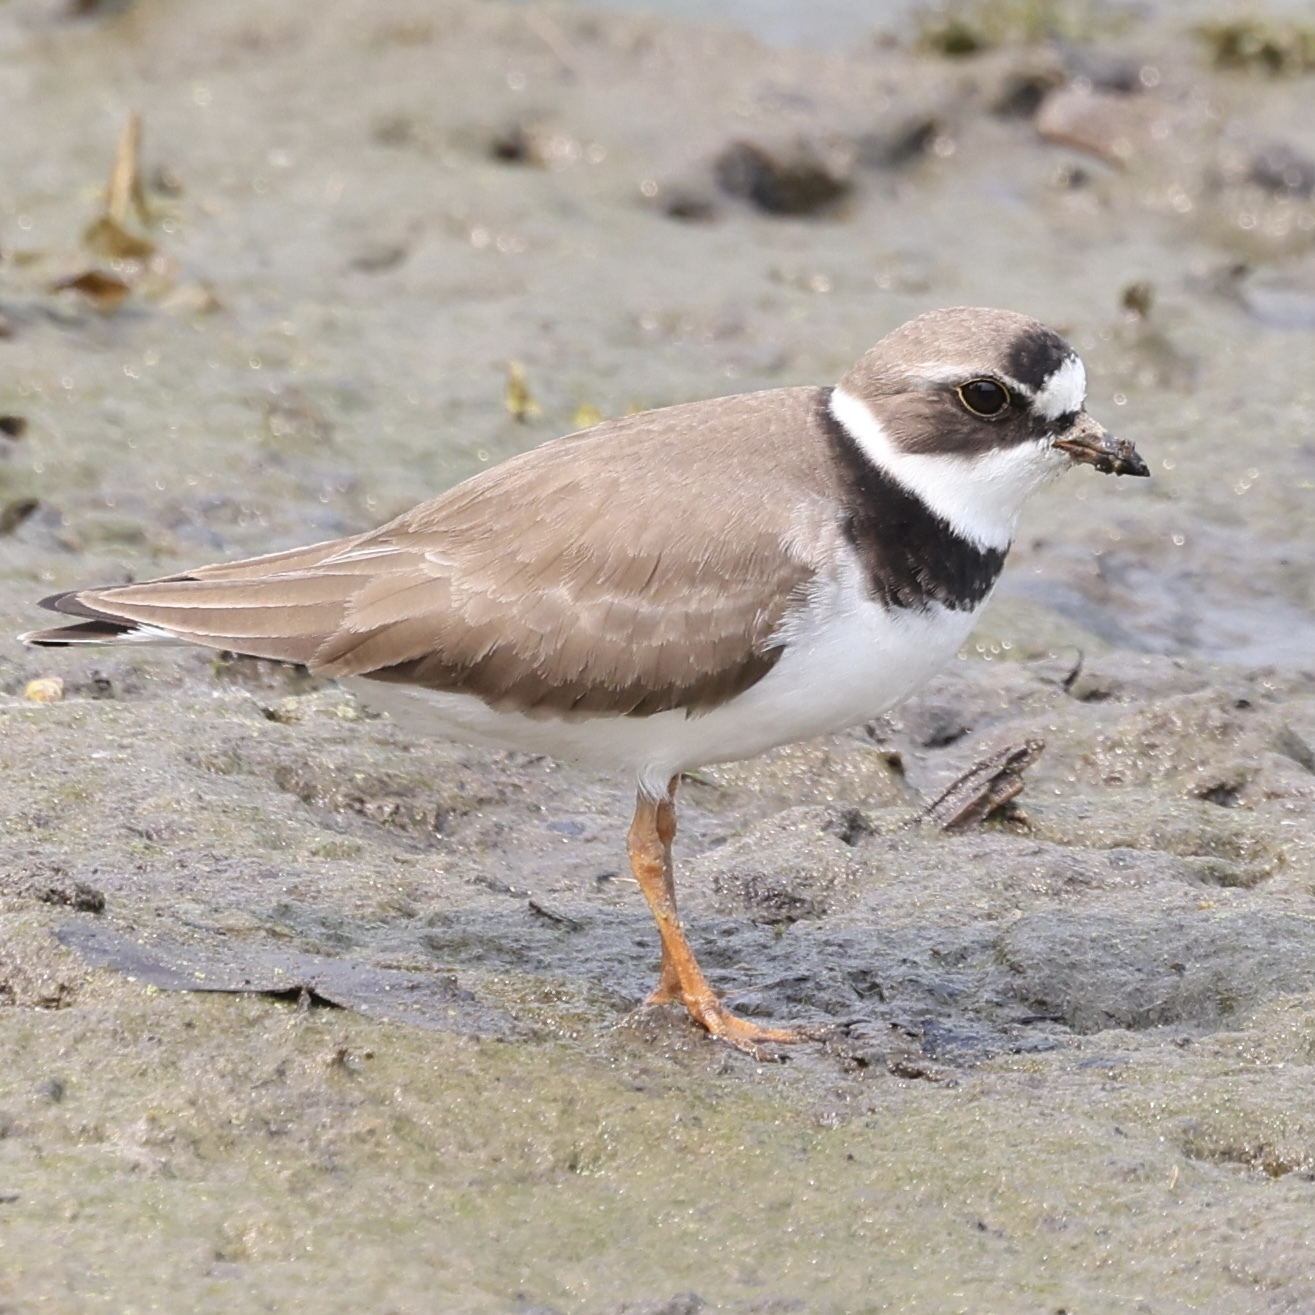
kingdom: Animalia
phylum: Chordata
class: Aves
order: Charadriiformes
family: Charadriidae
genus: Charadrius
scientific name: Charadrius semipalmatus
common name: Semipalmated plover
